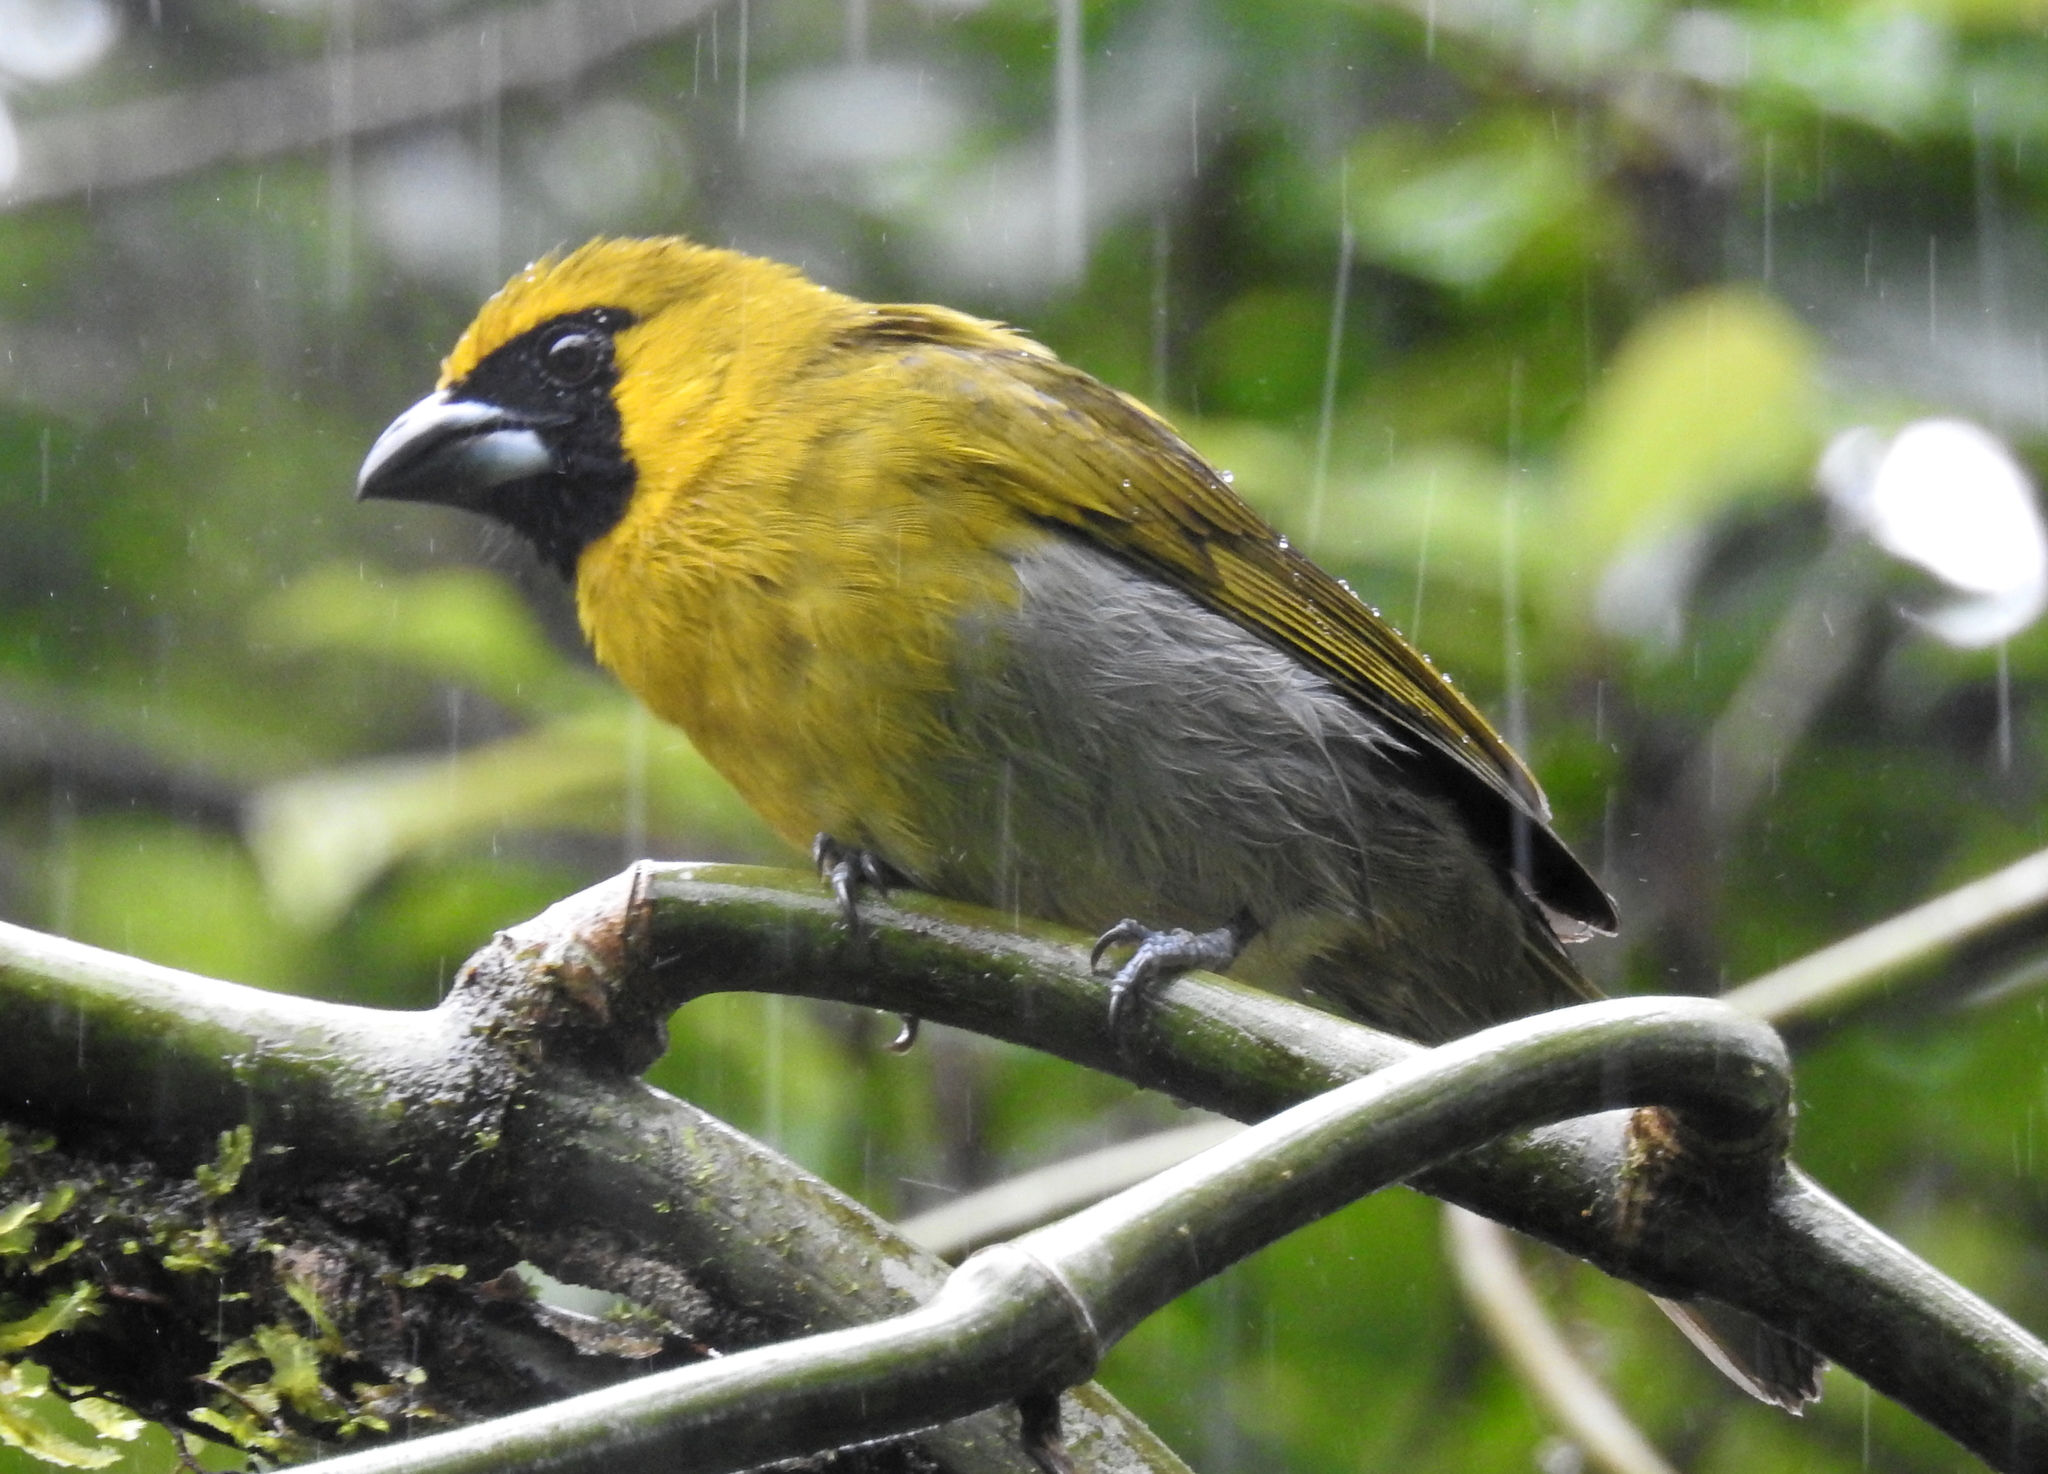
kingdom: Animalia
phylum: Chordata
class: Aves
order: Passeriformes
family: Cardinalidae
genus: Caryothraustes
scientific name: Caryothraustes poliogaster
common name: Black-faced grosbeak
